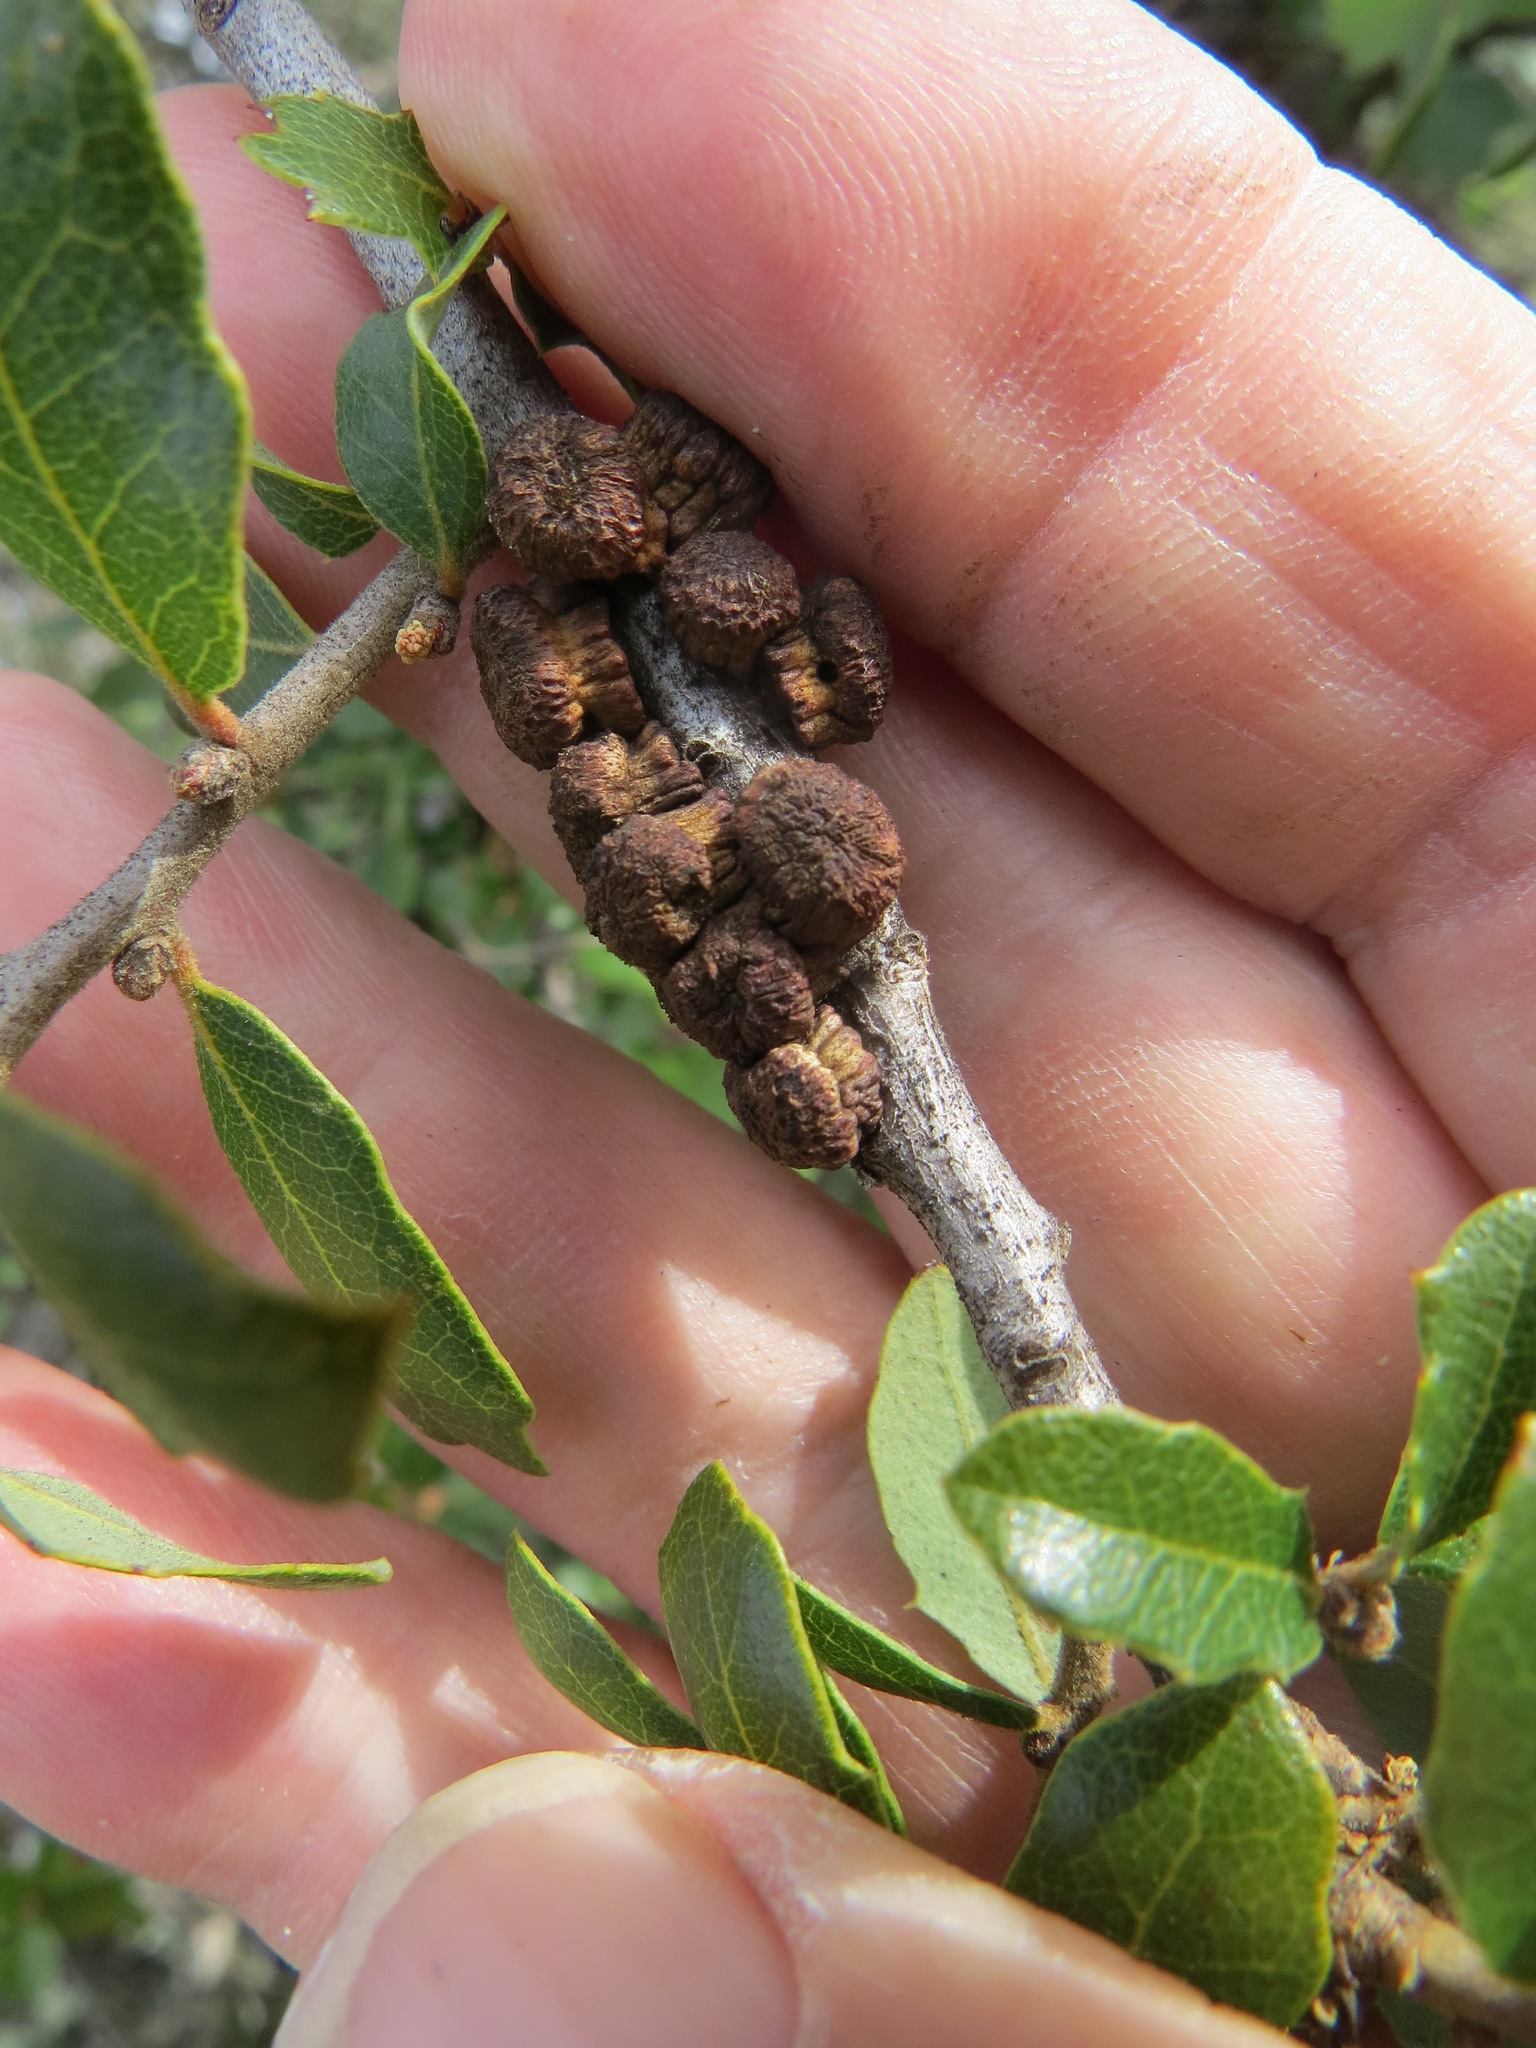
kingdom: Animalia
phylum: Arthropoda
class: Insecta
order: Hymenoptera
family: Cynipidae
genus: Disholcaspis
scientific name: Disholcaspis prehensa
